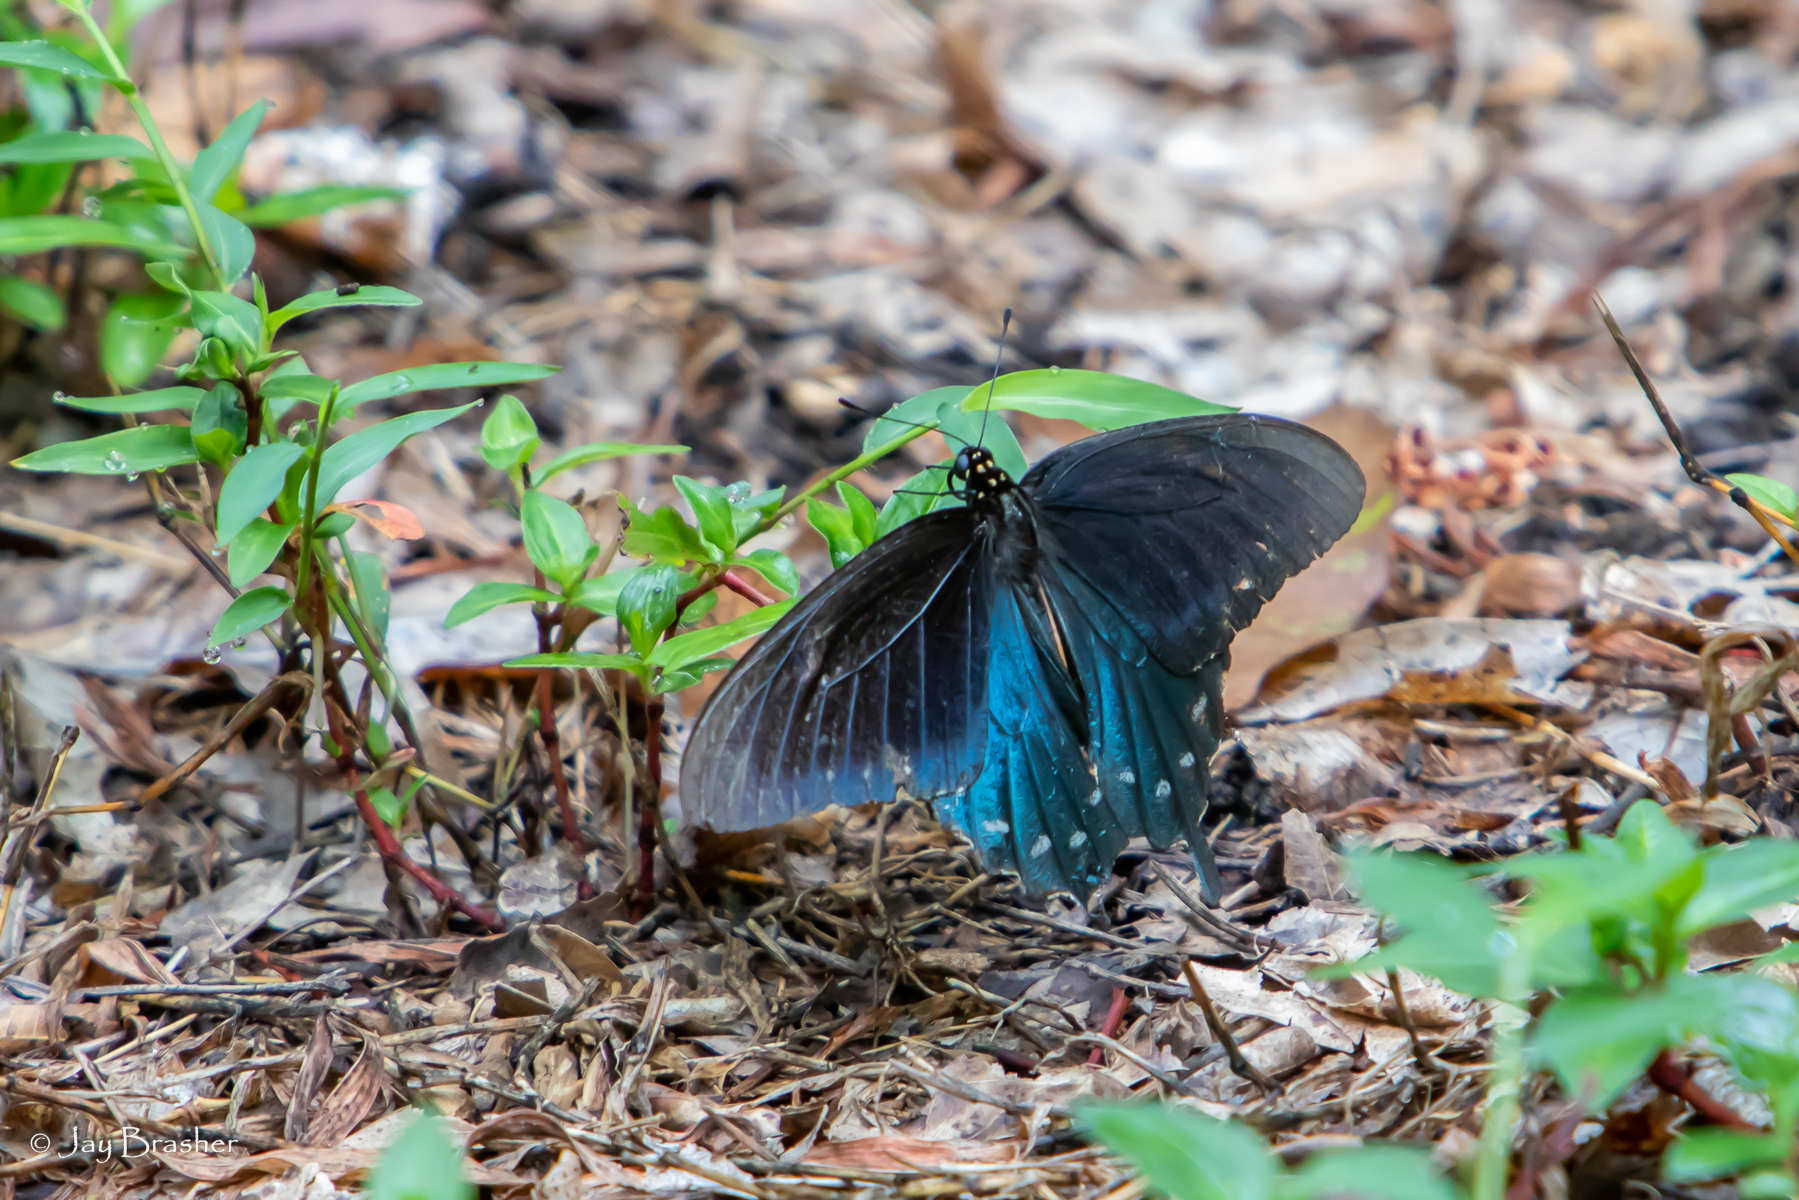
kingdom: Animalia
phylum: Arthropoda
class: Insecta
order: Lepidoptera
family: Papilionidae
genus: Battus
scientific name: Battus philenor
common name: Pipevine swallowtail
